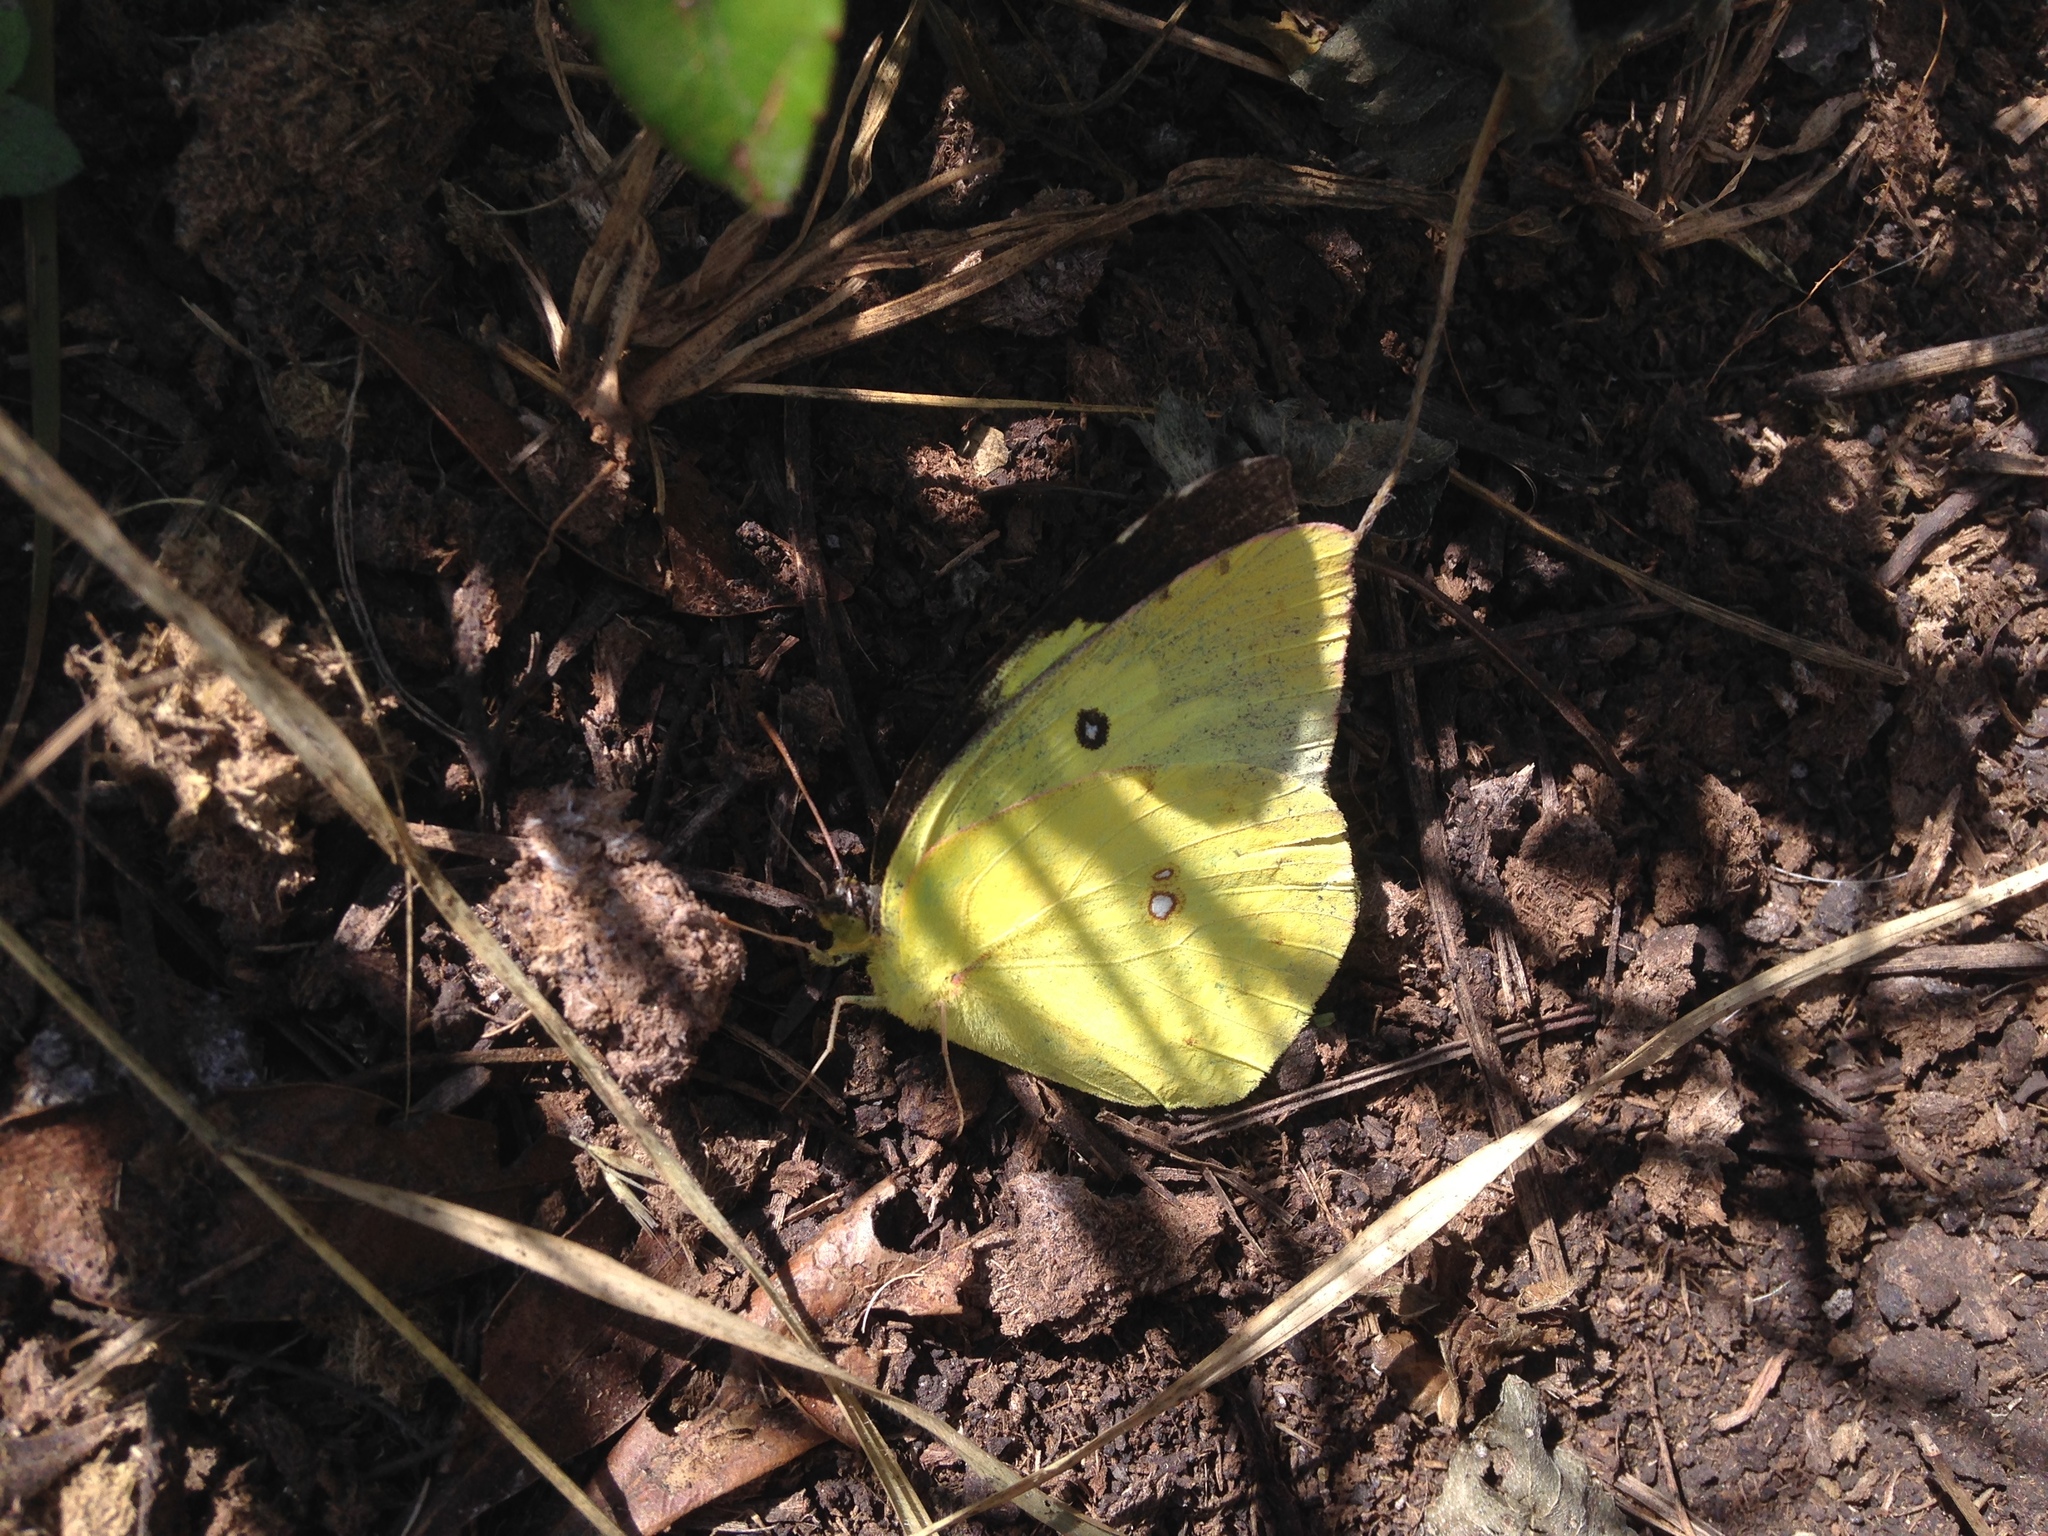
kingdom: Animalia
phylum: Arthropoda
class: Insecta
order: Lepidoptera
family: Pieridae
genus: Zerene
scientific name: Zerene cesonia
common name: Southern dogface
